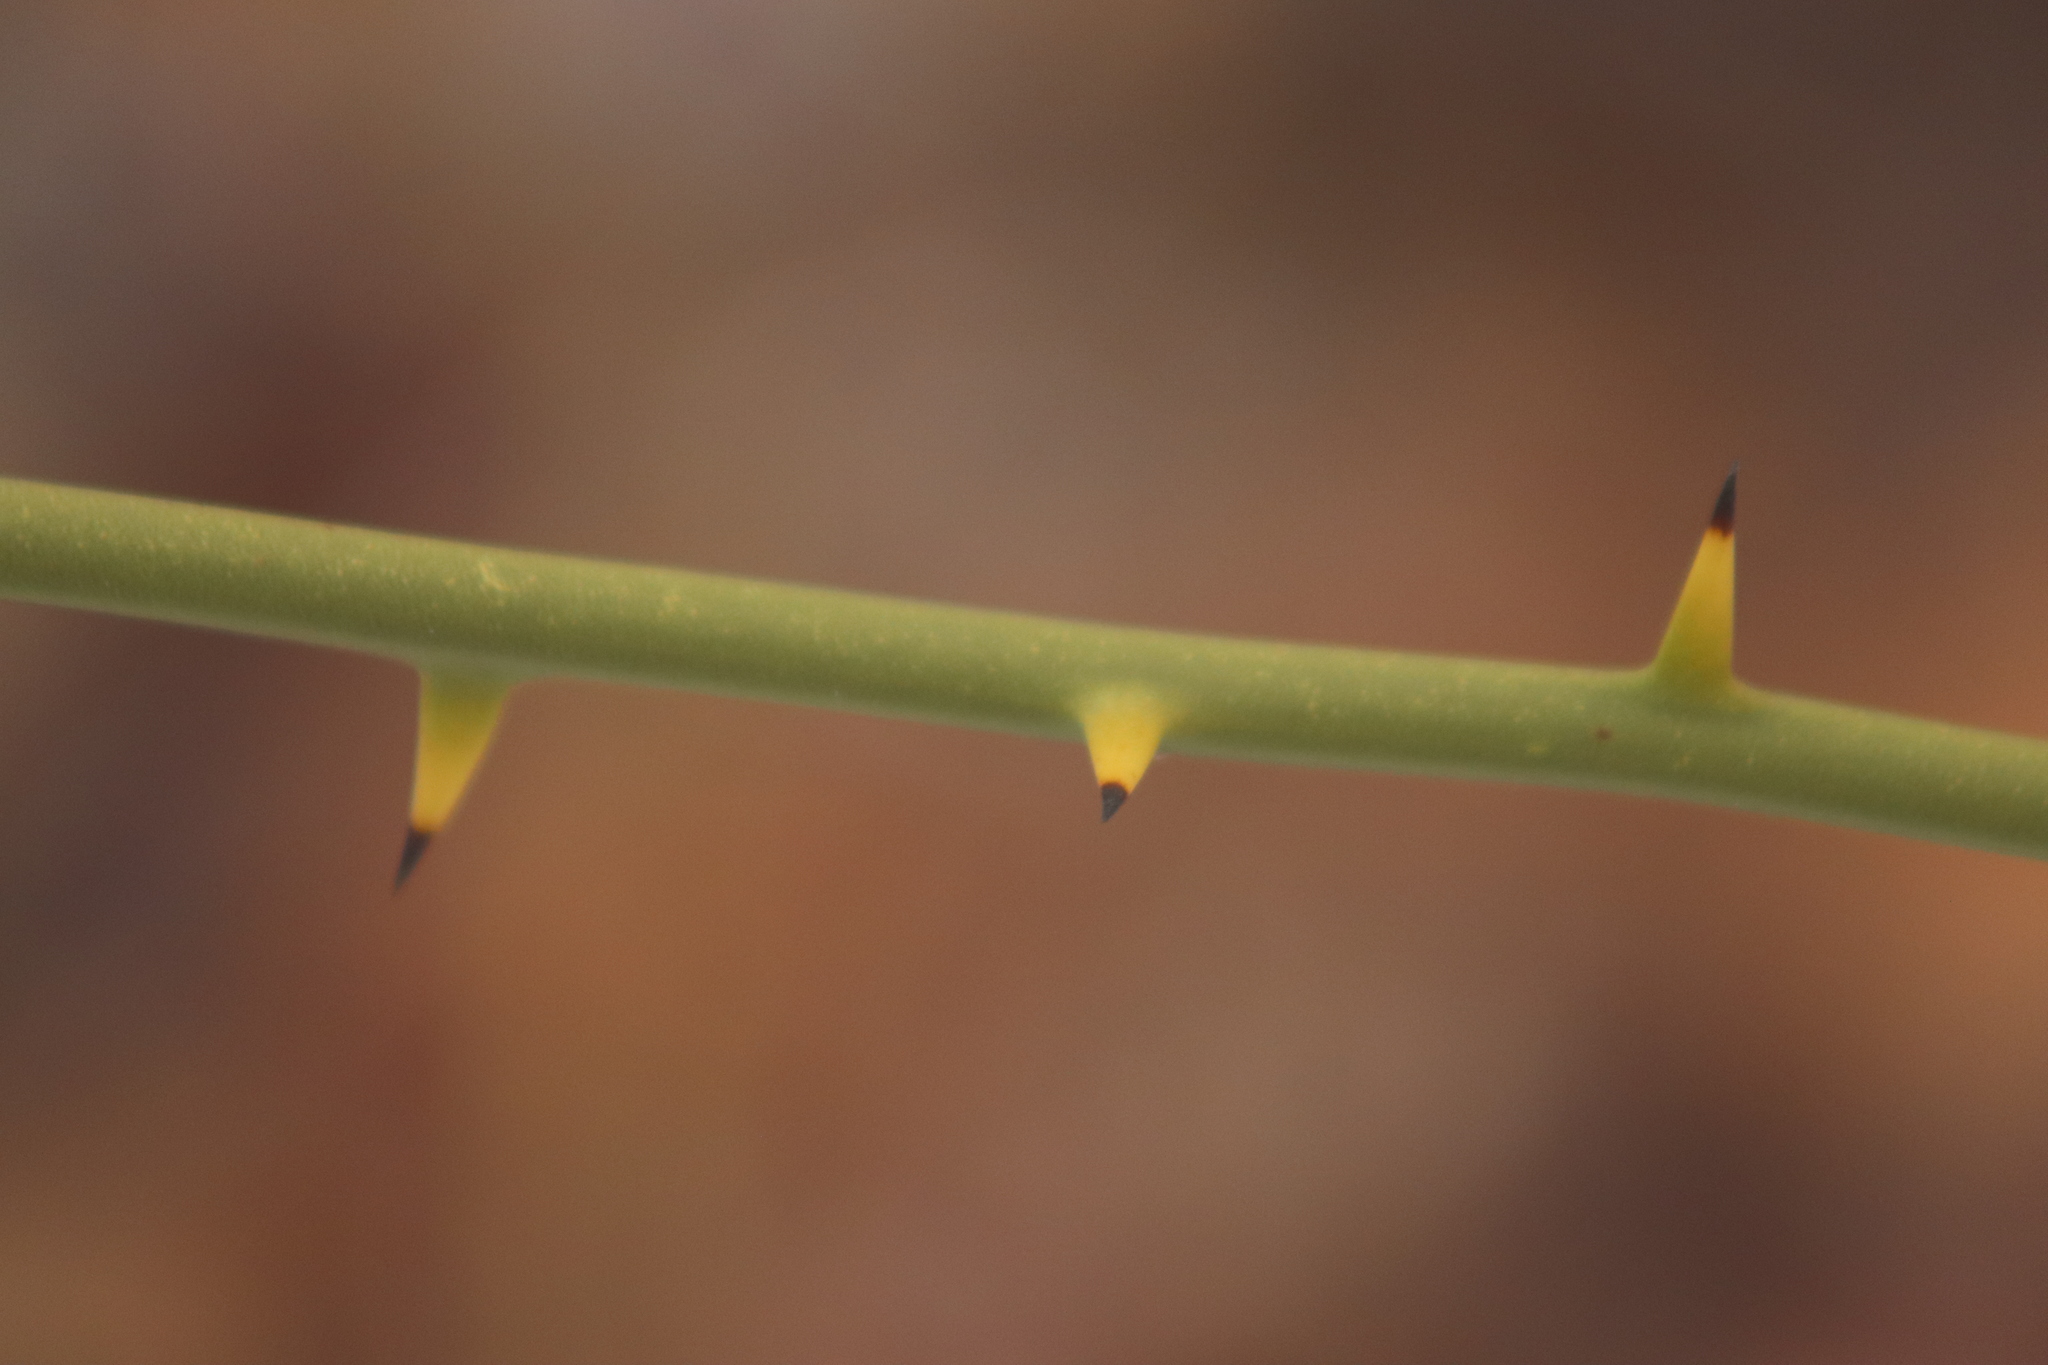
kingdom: Plantae
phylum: Tracheophyta
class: Liliopsida
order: Liliales
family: Smilacaceae
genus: Smilax
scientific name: Smilax rotundifolia
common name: Bullbriar
